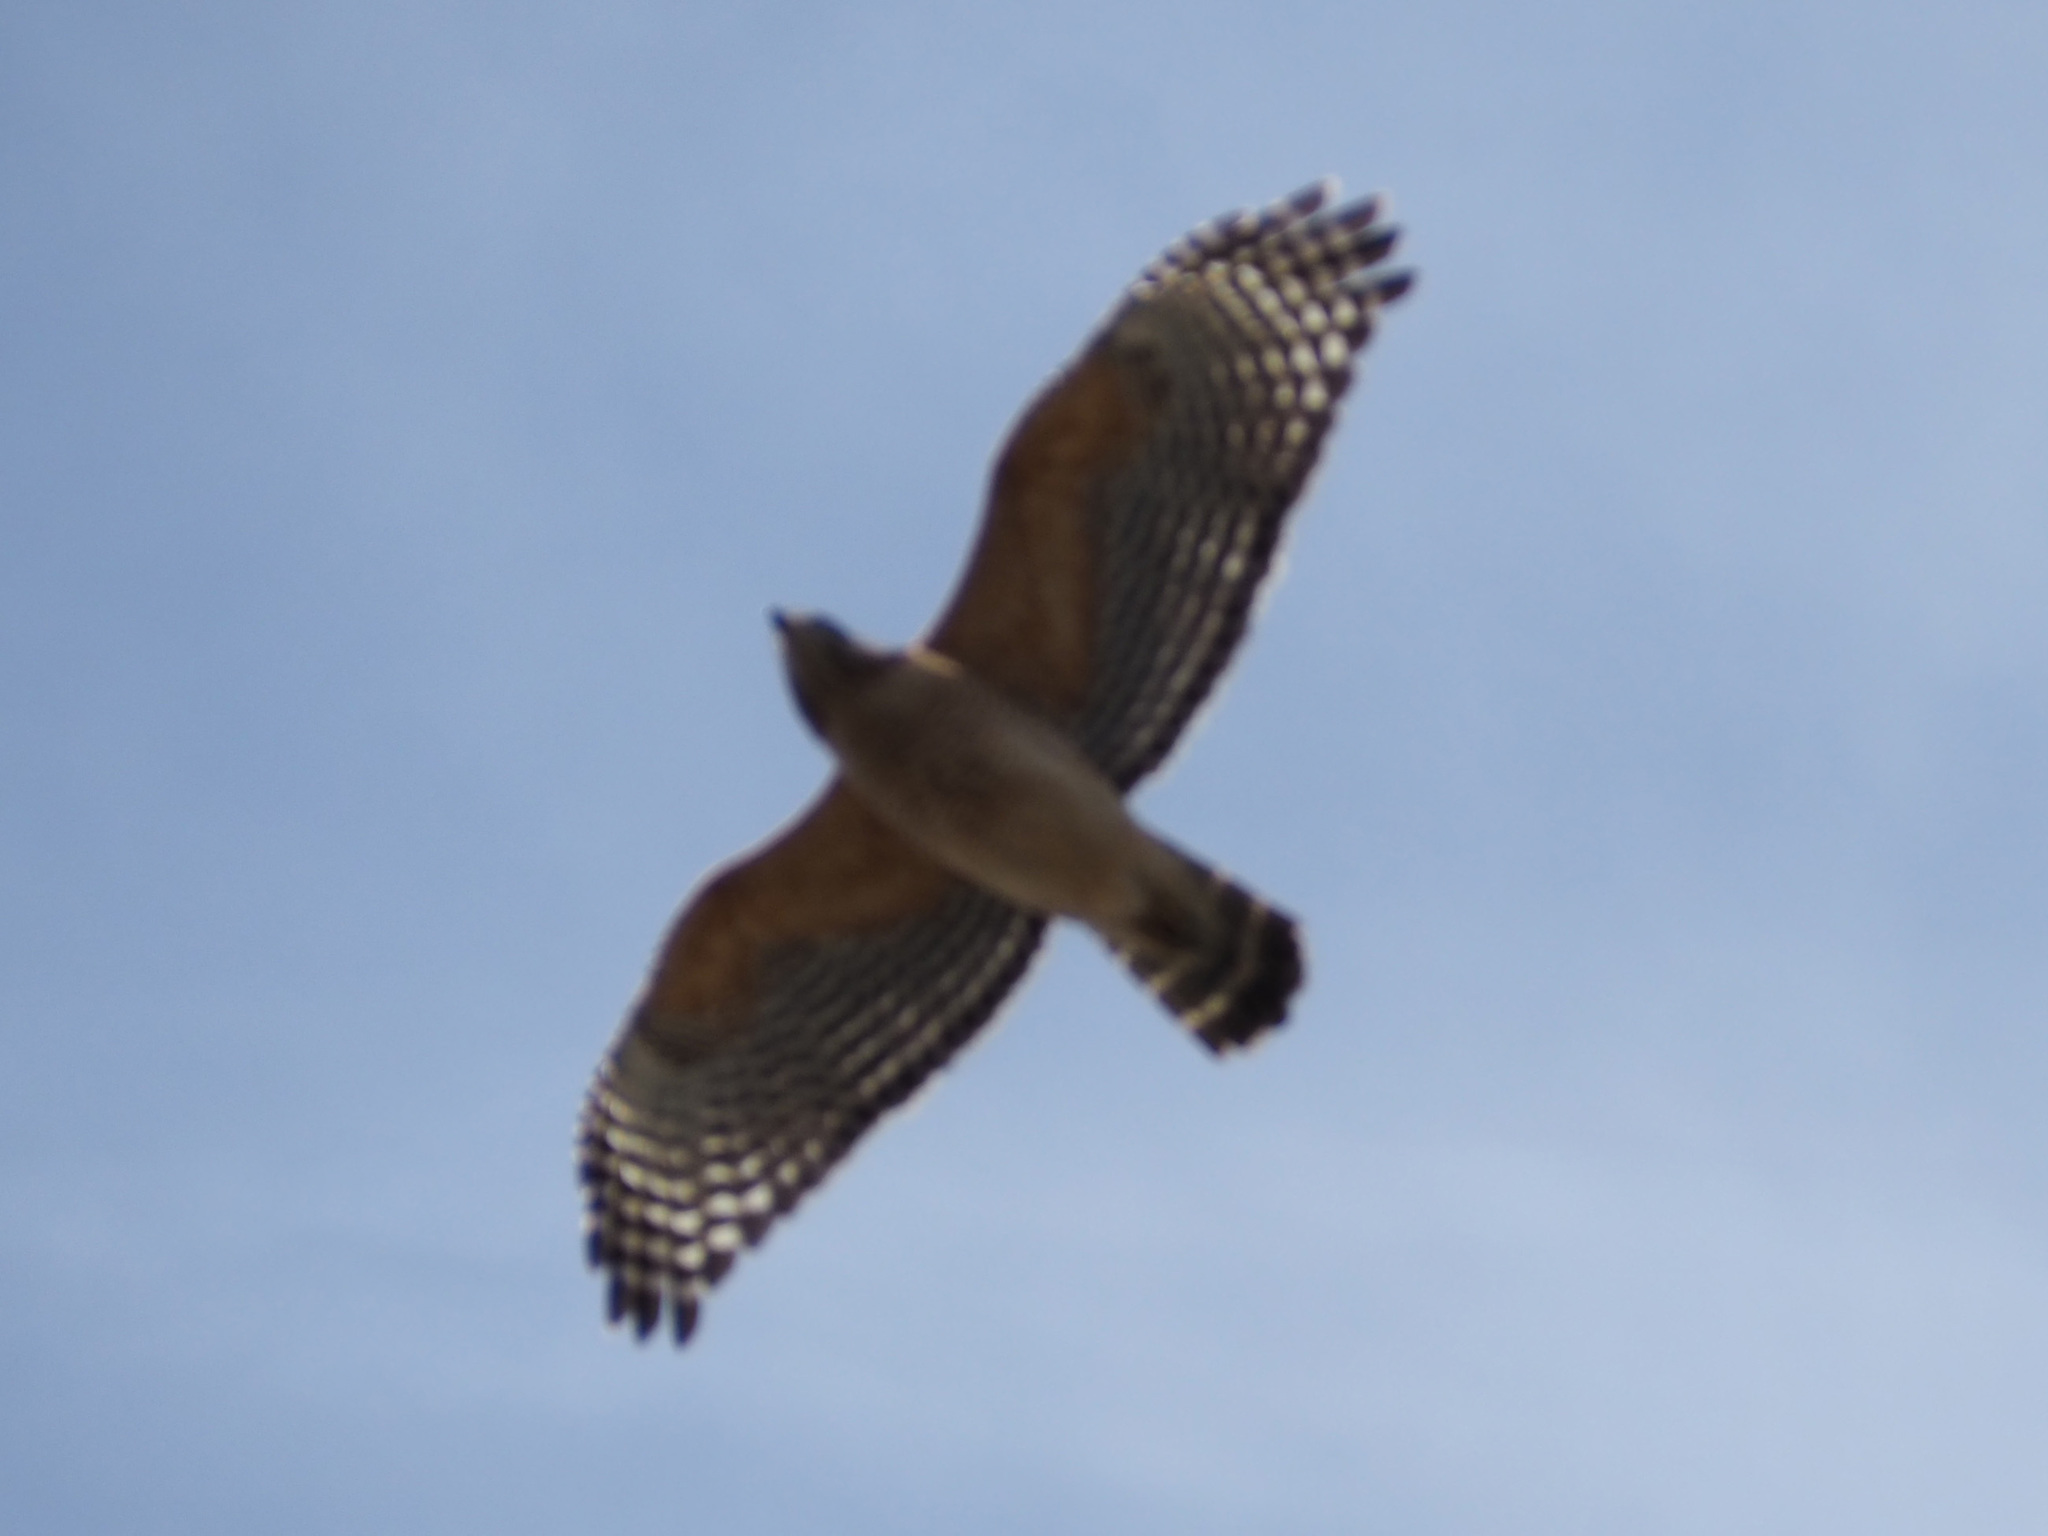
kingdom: Animalia
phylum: Chordata
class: Aves
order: Accipitriformes
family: Accipitridae
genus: Buteo
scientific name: Buteo lineatus
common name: Red-shouldered hawk
